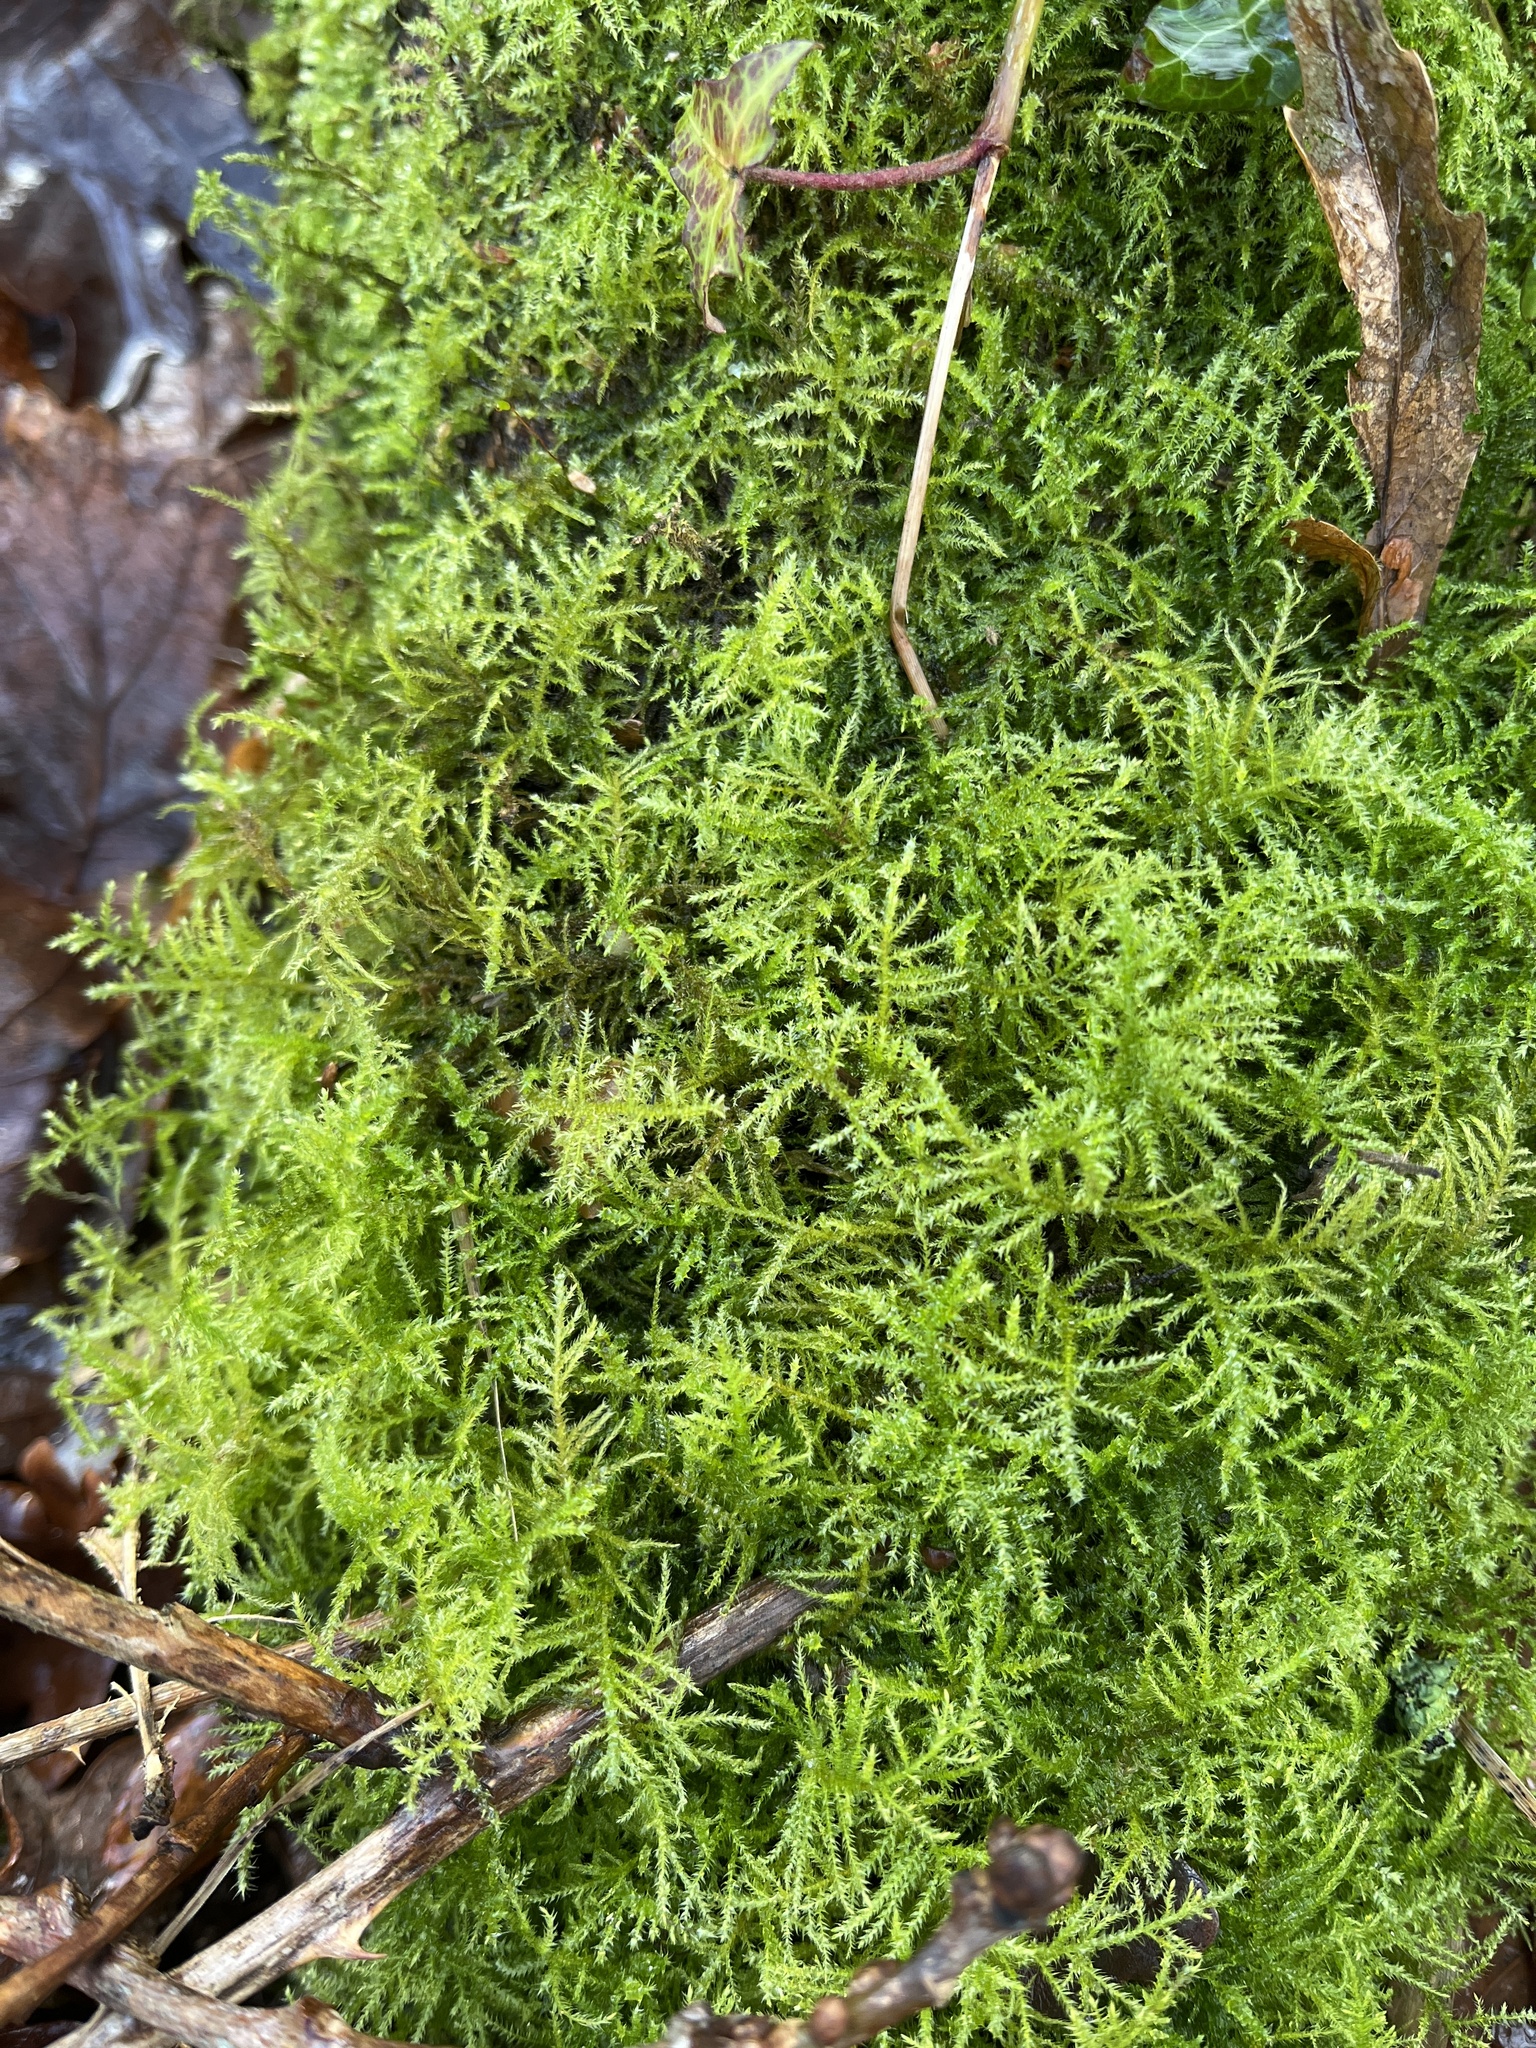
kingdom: Plantae
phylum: Bryophyta
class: Bryopsida
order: Hypnales
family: Brachytheciaceae
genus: Kindbergia
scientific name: Kindbergia praelonga
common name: Slender beaked moss
